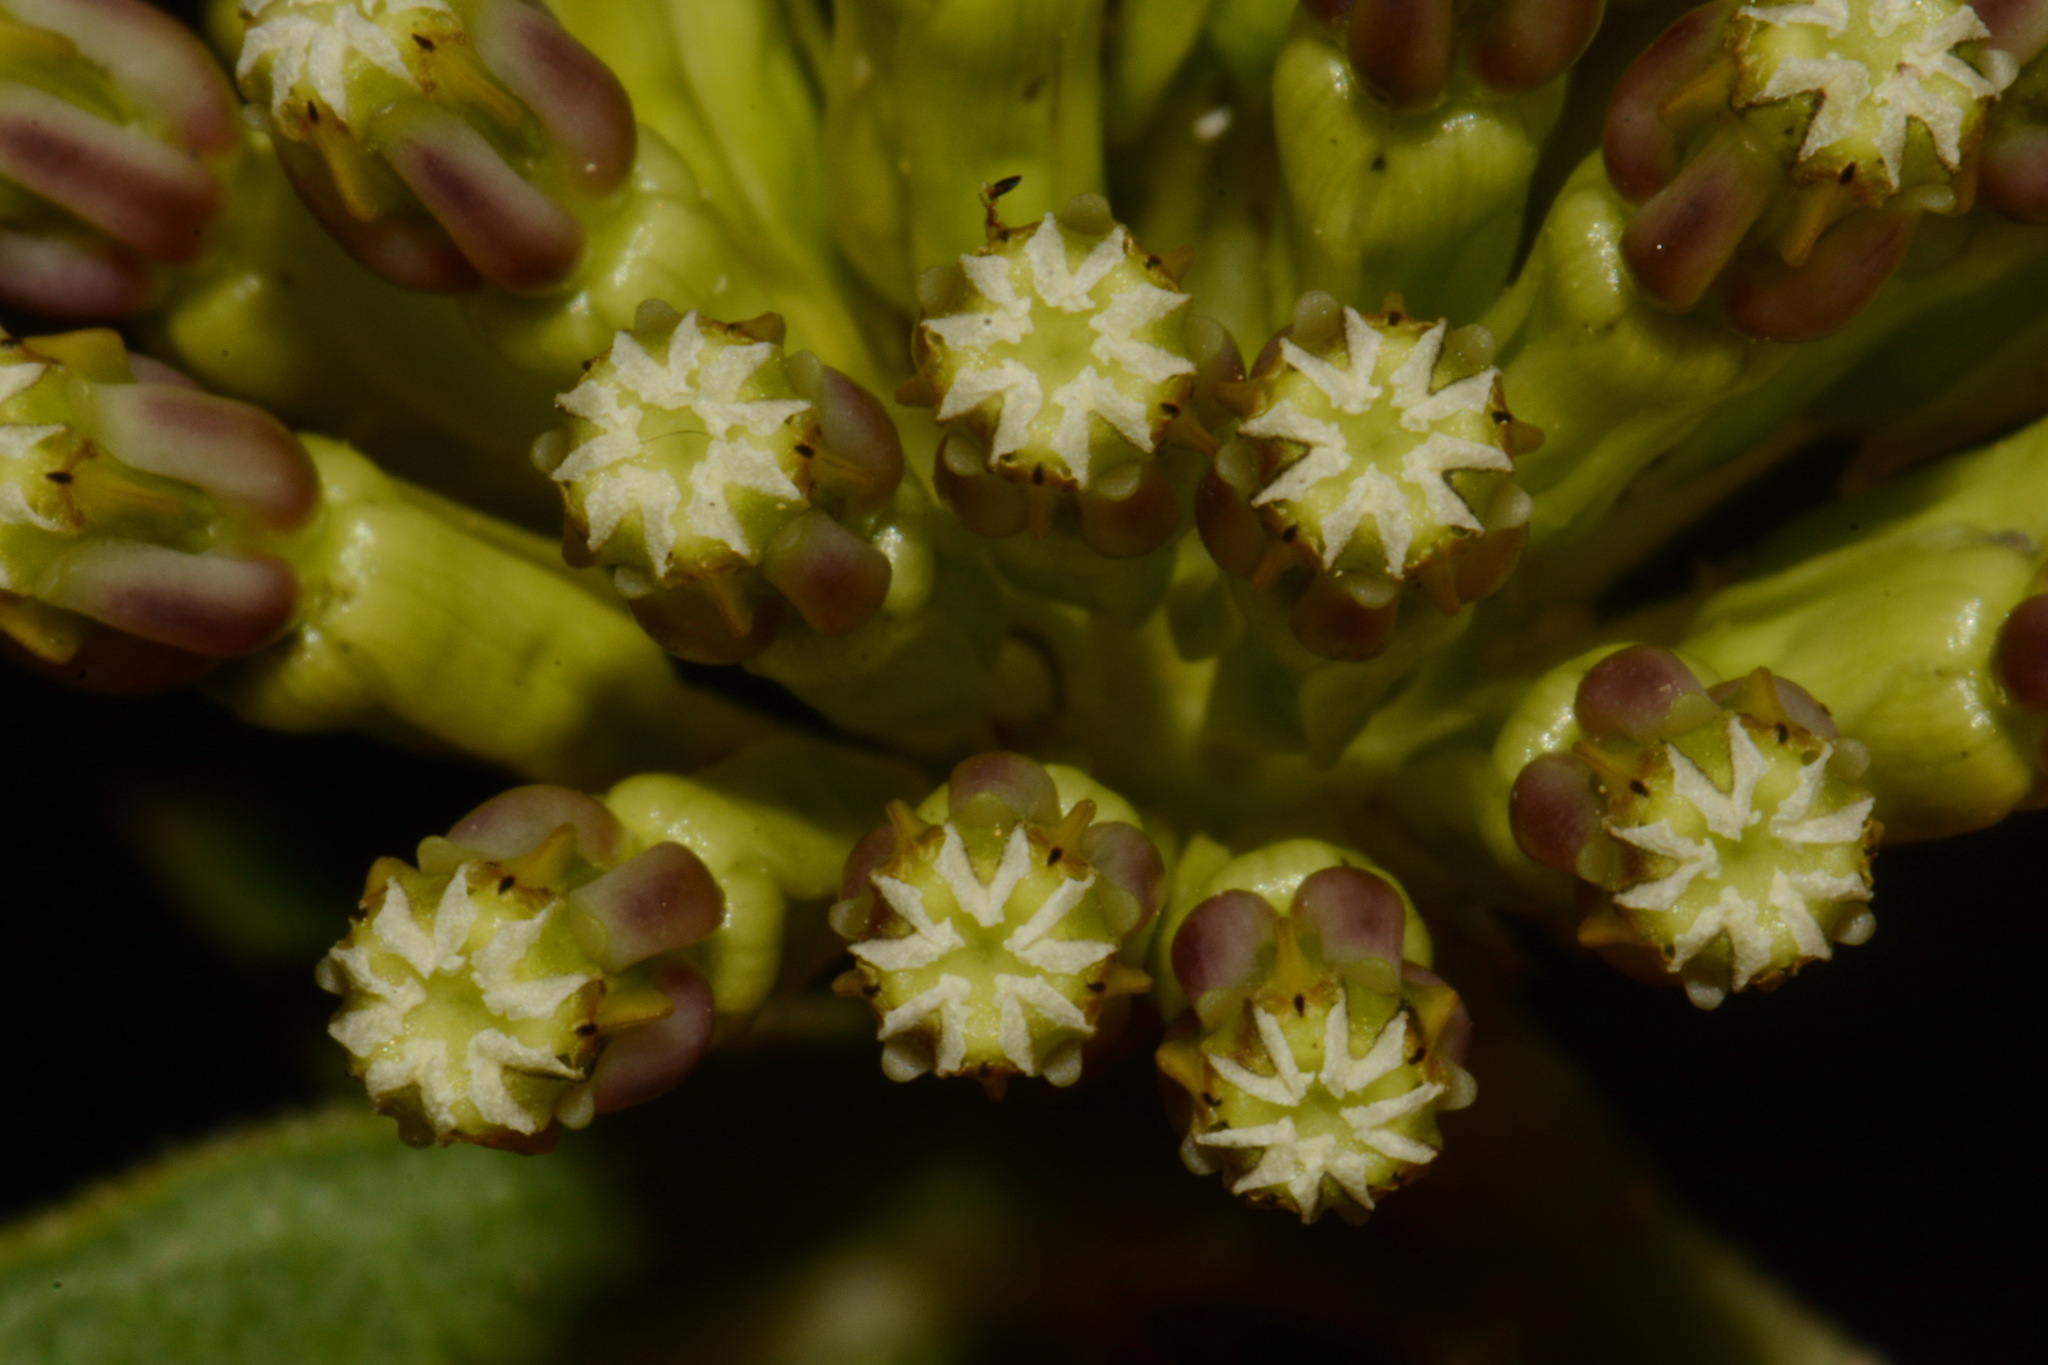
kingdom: Plantae
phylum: Tracheophyta
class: Magnoliopsida
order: Gentianales
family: Apocynaceae
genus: Asclepias
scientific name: Asclepias viridiflora
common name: Green comet milkweed
